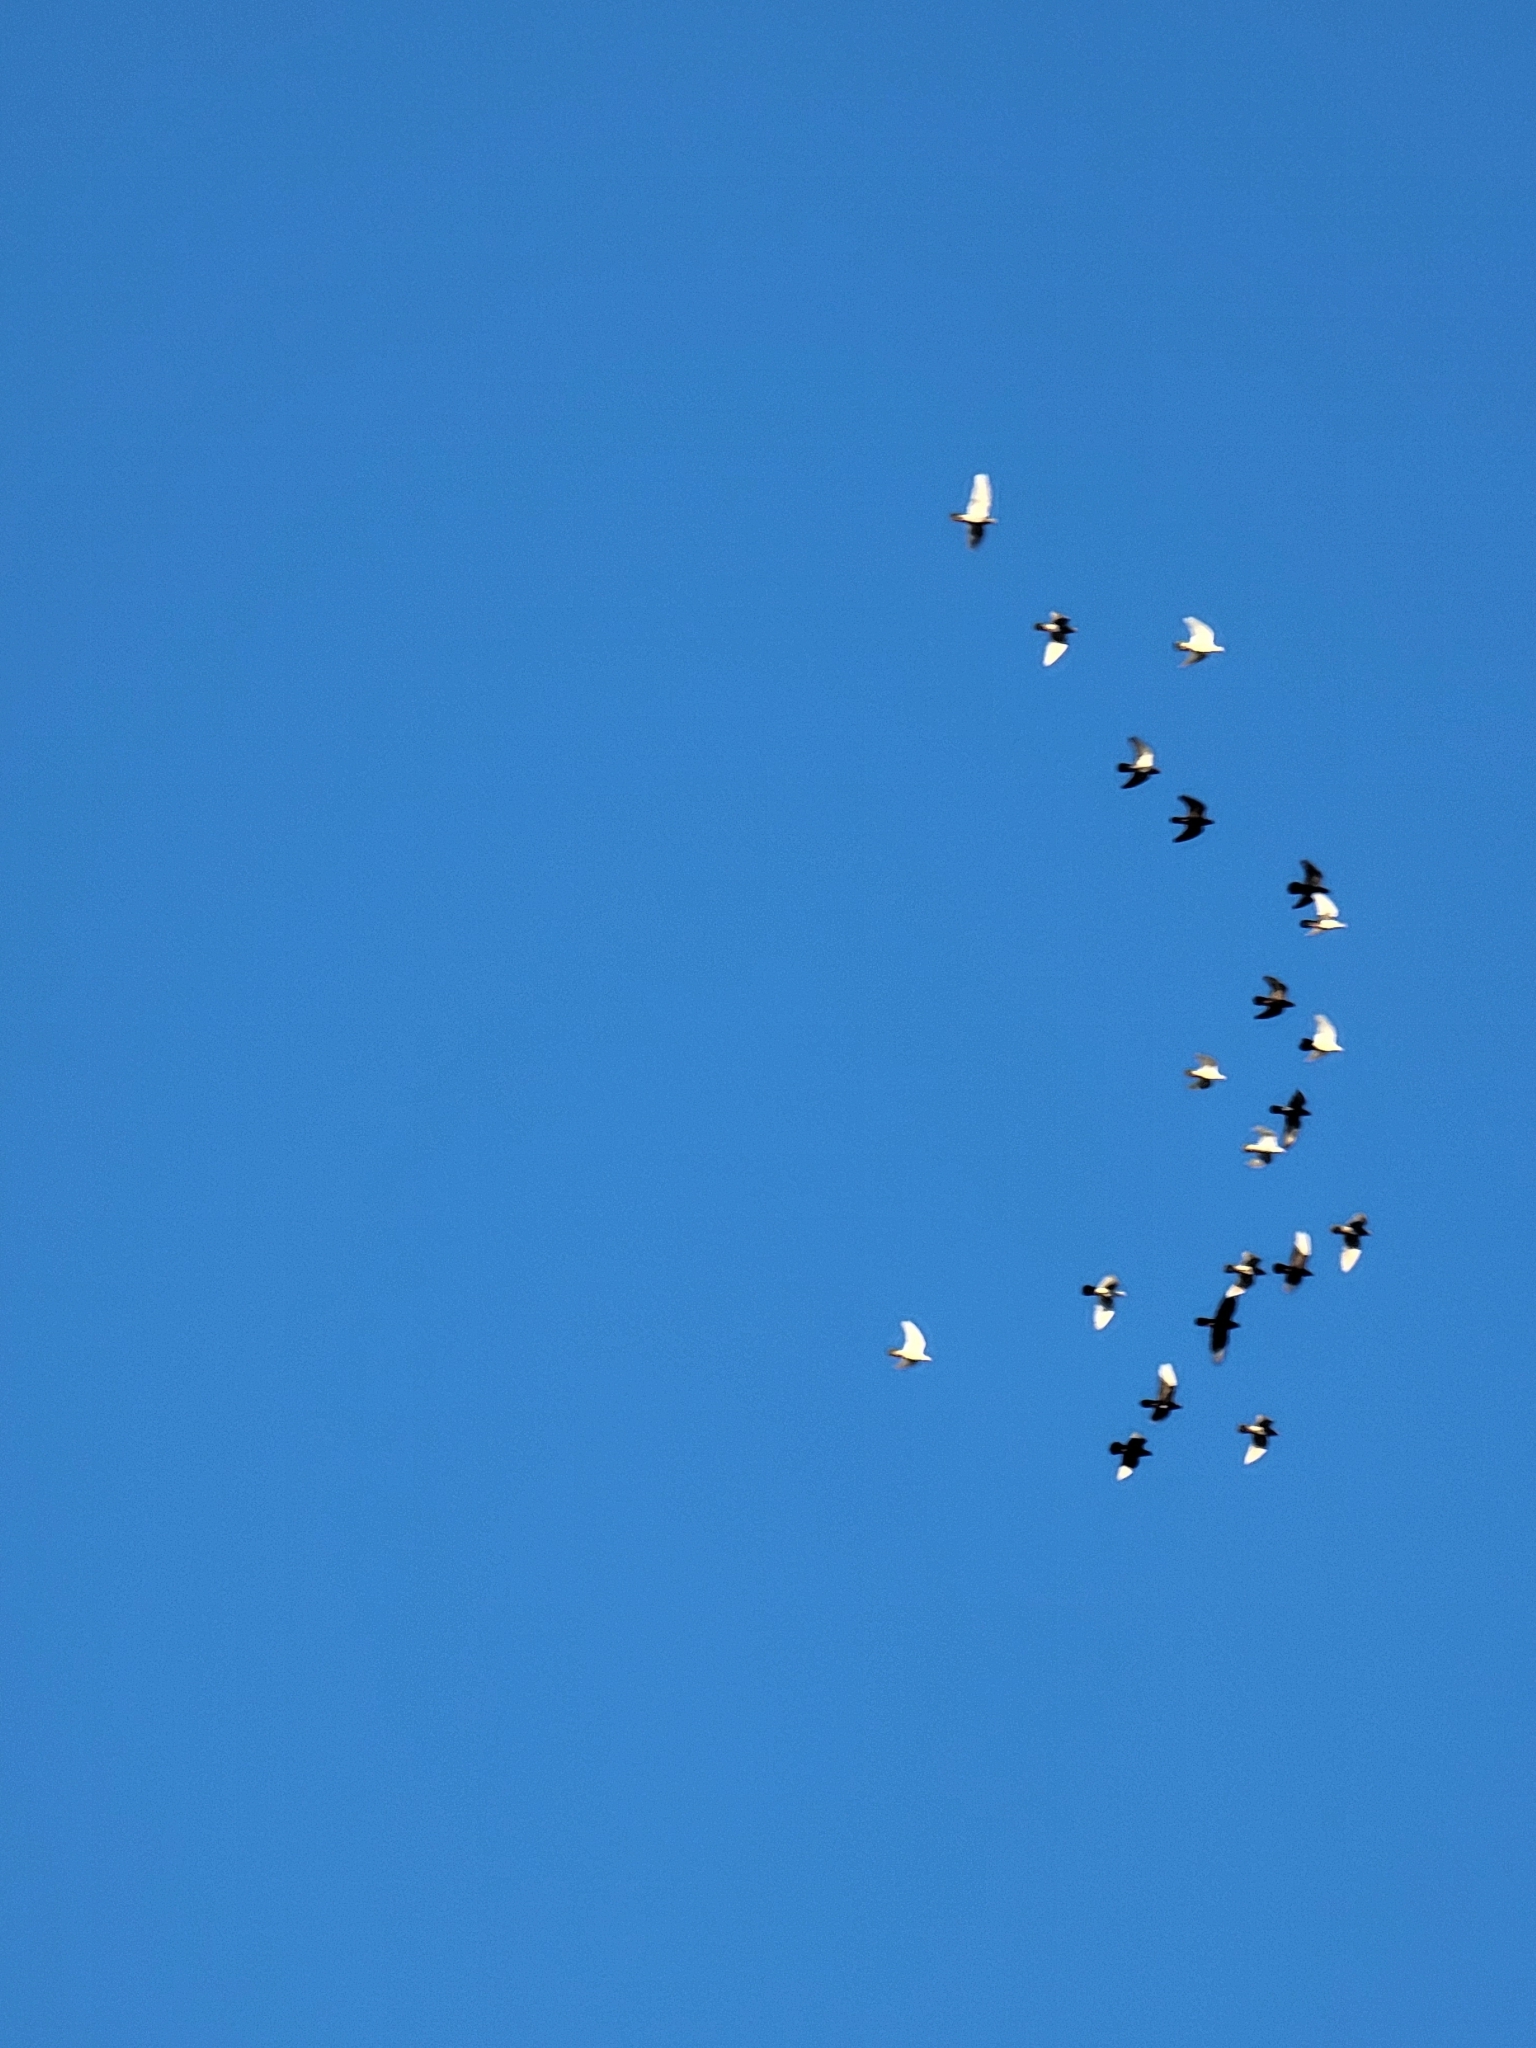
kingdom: Animalia
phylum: Chordata
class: Aves
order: Columbiformes
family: Columbidae
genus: Columba
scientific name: Columba livia
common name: Rock pigeon
